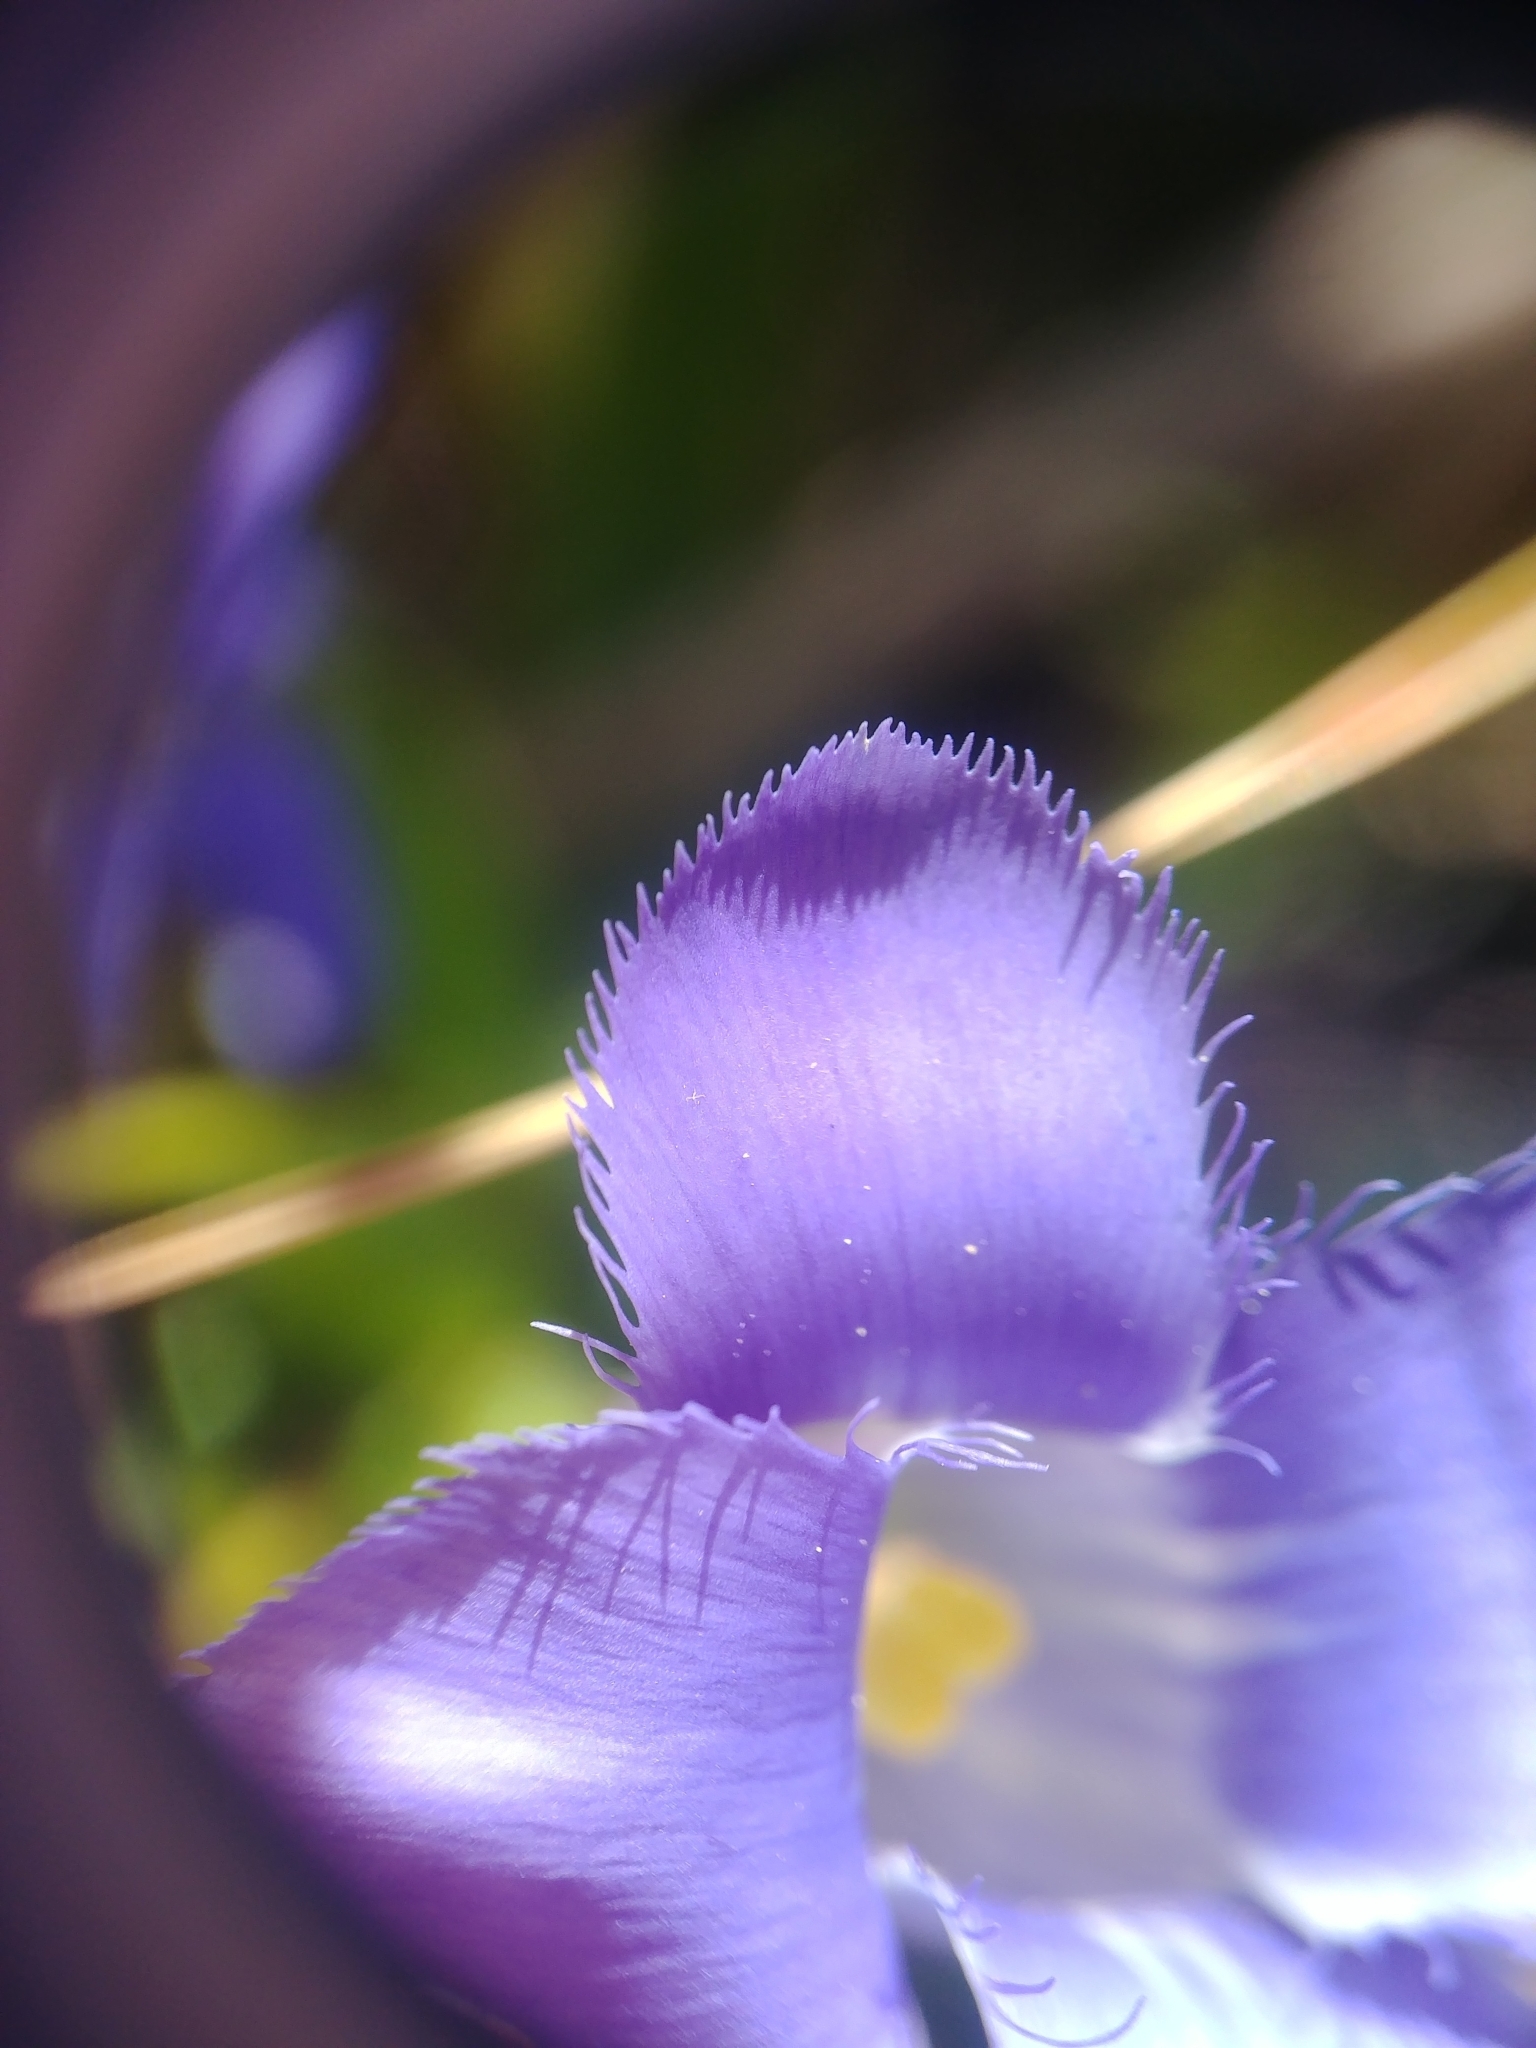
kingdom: Plantae
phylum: Tracheophyta
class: Magnoliopsida
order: Gentianales
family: Gentianaceae
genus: Gentianopsis
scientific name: Gentianopsis crinita
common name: Fringed-gentian
